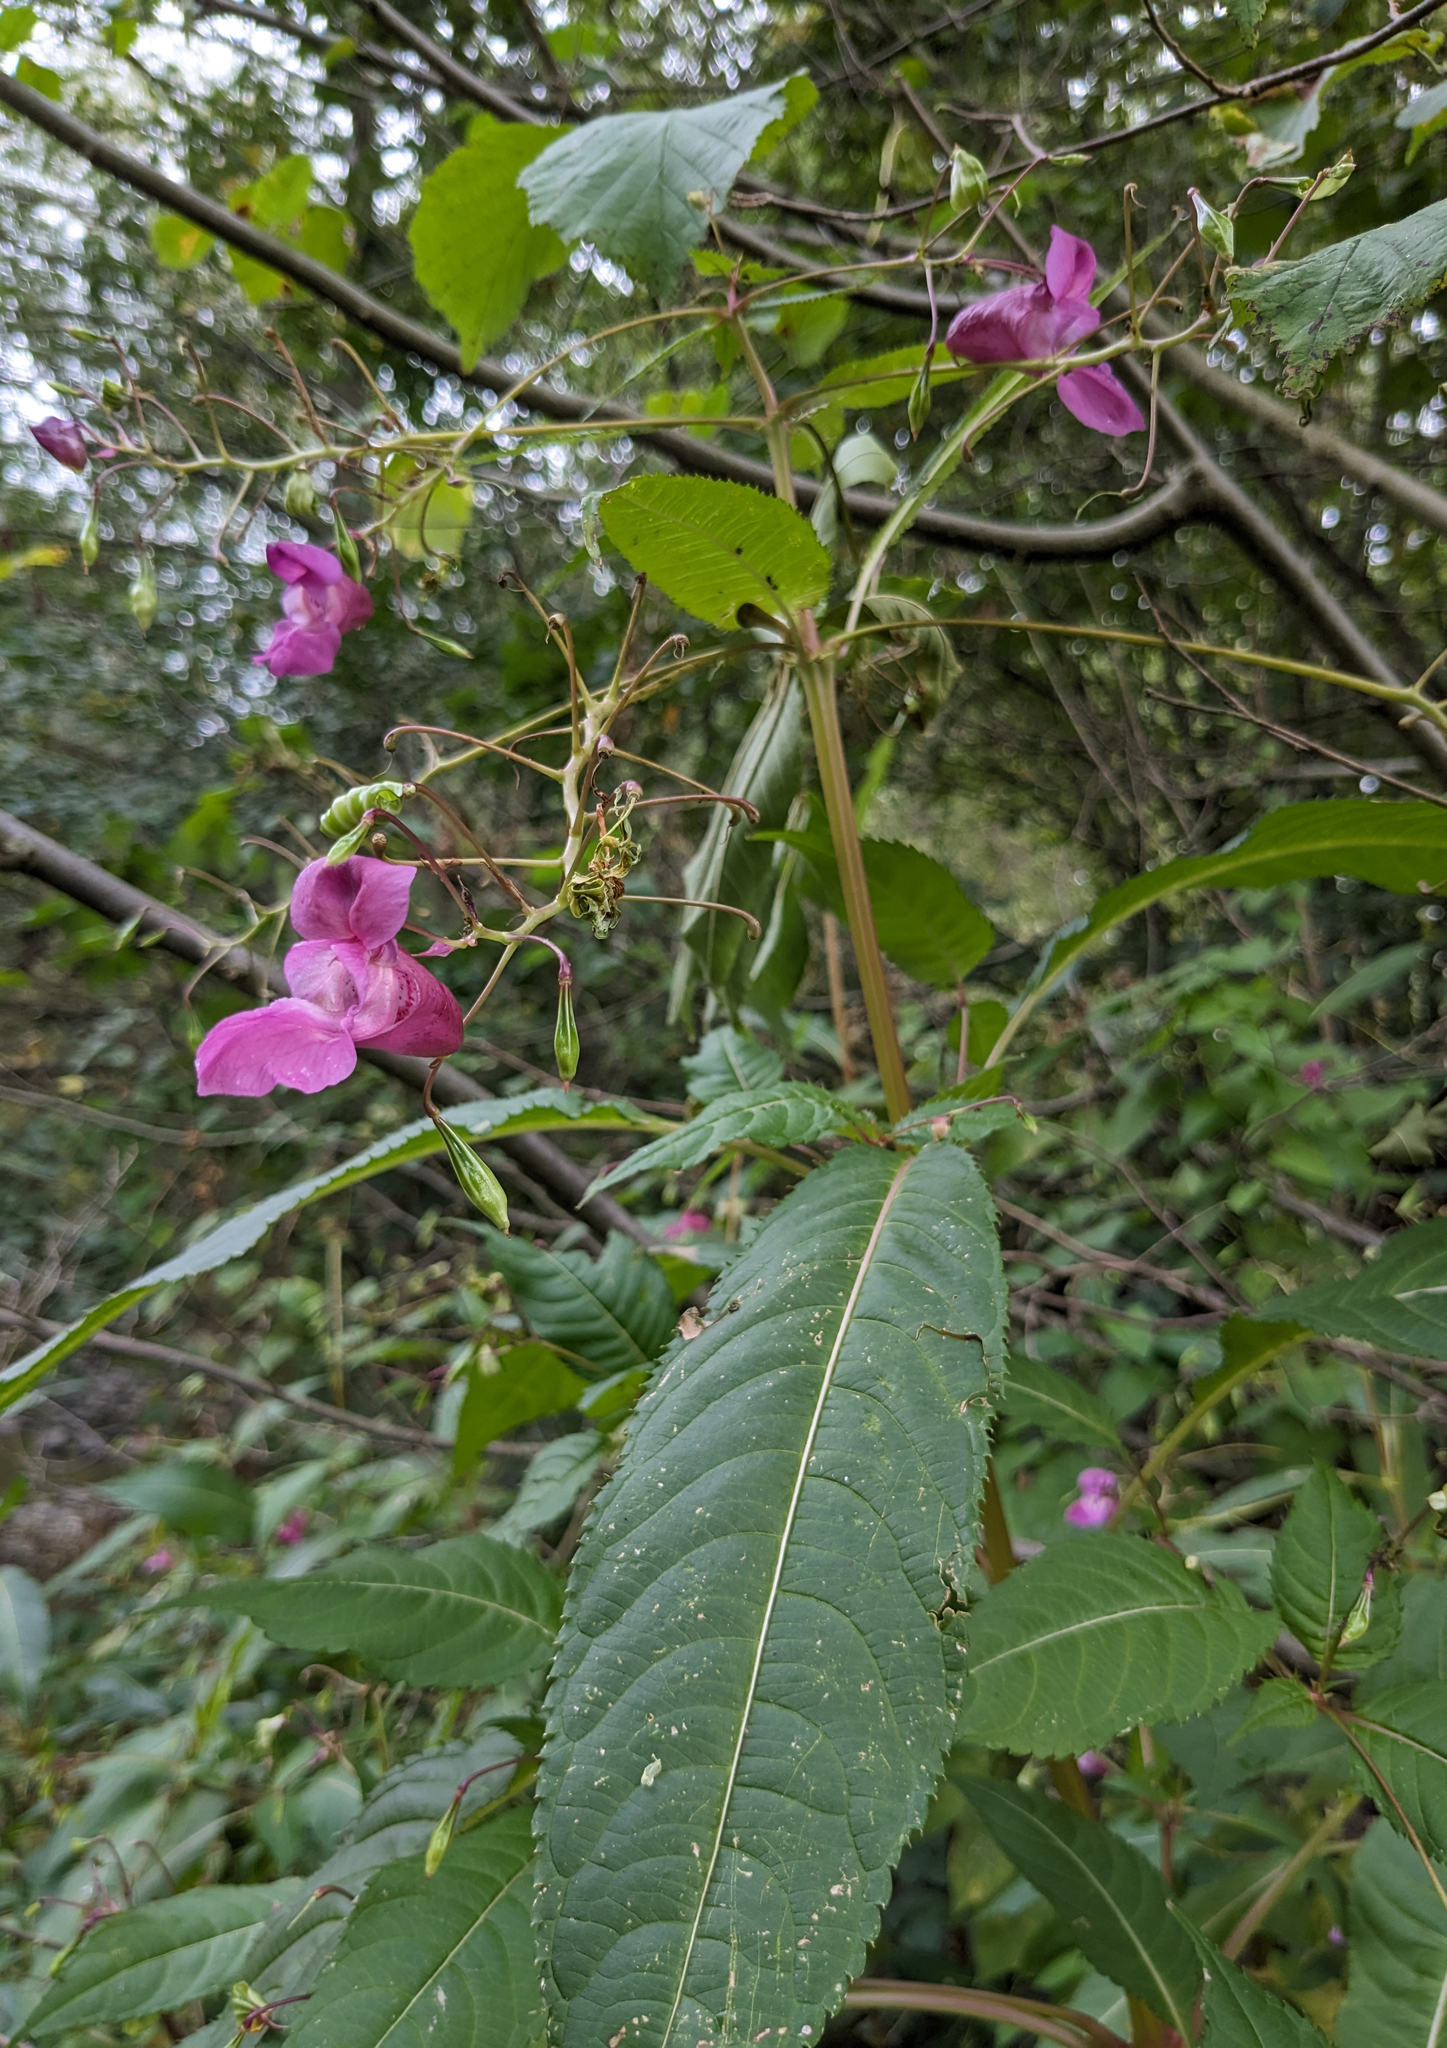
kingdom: Plantae
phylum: Tracheophyta
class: Magnoliopsida
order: Ericales
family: Balsaminaceae
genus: Impatiens
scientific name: Impatiens glandulifera
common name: Himalayan balsam
